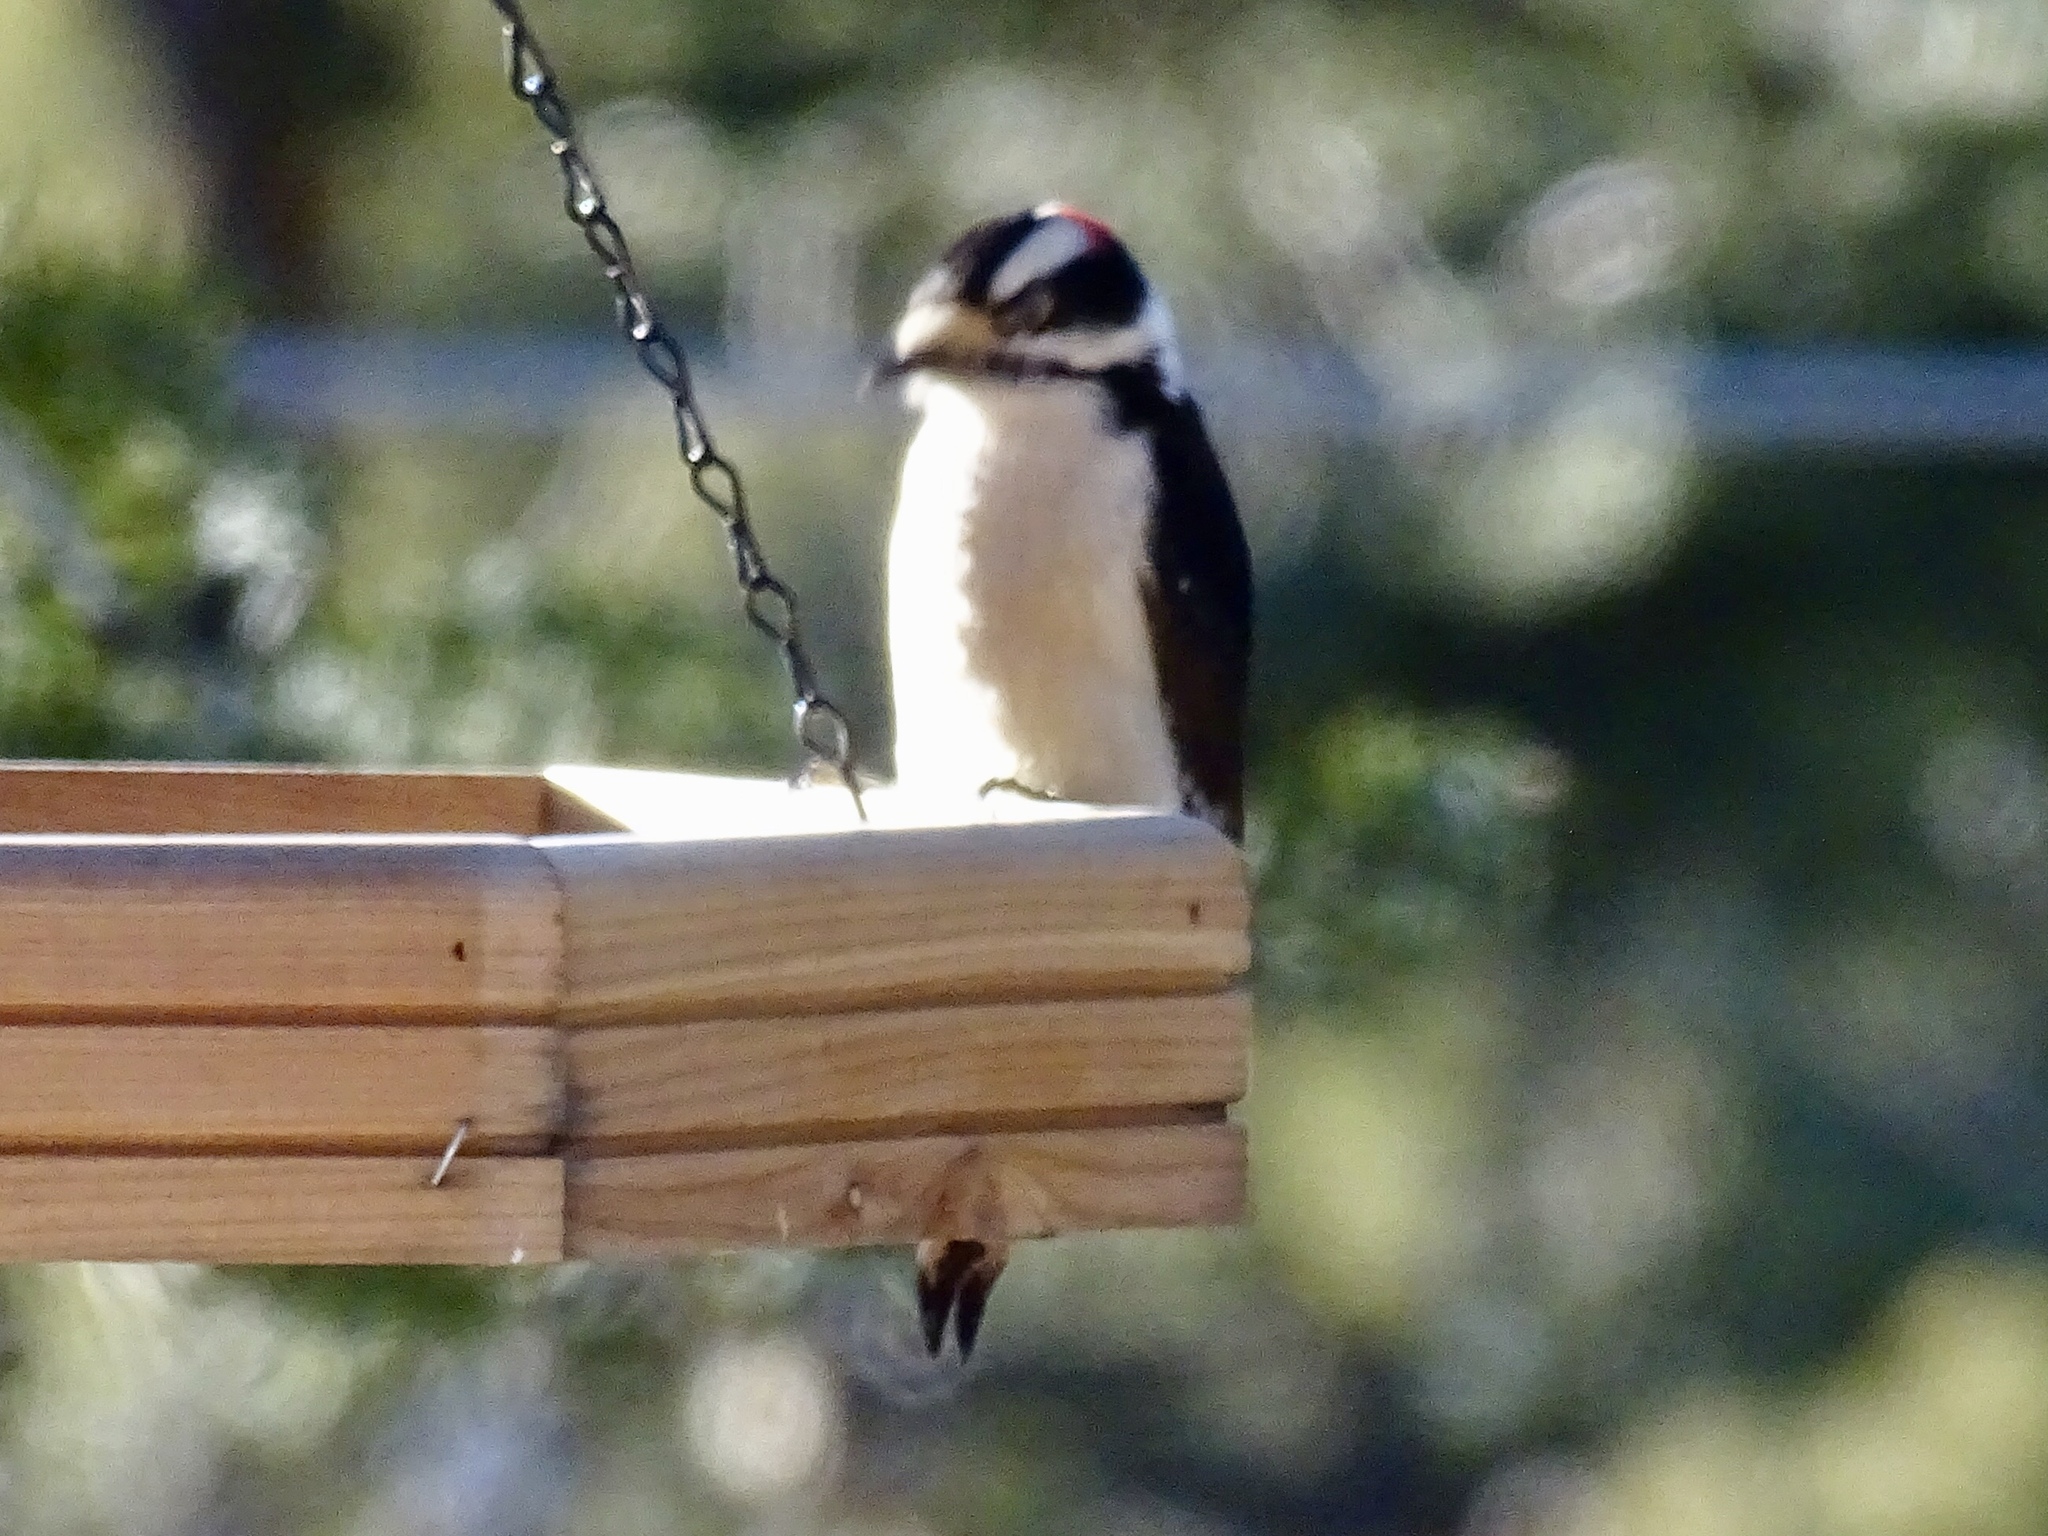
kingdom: Animalia
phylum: Chordata
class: Aves
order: Piciformes
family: Picidae
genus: Dryobates
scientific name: Dryobates pubescens
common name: Downy woodpecker
